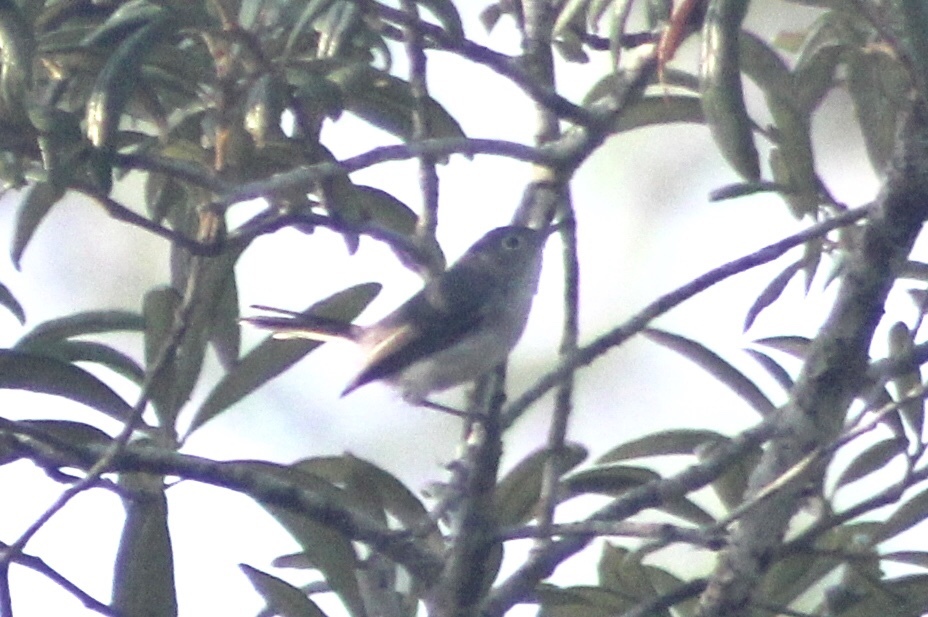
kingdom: Animalia
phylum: Chordata
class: Aves
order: Passeriformes
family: Polioptilidae
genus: Polioptila
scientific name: Polioptila caerulea
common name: Blue-gray gnatcatcher
